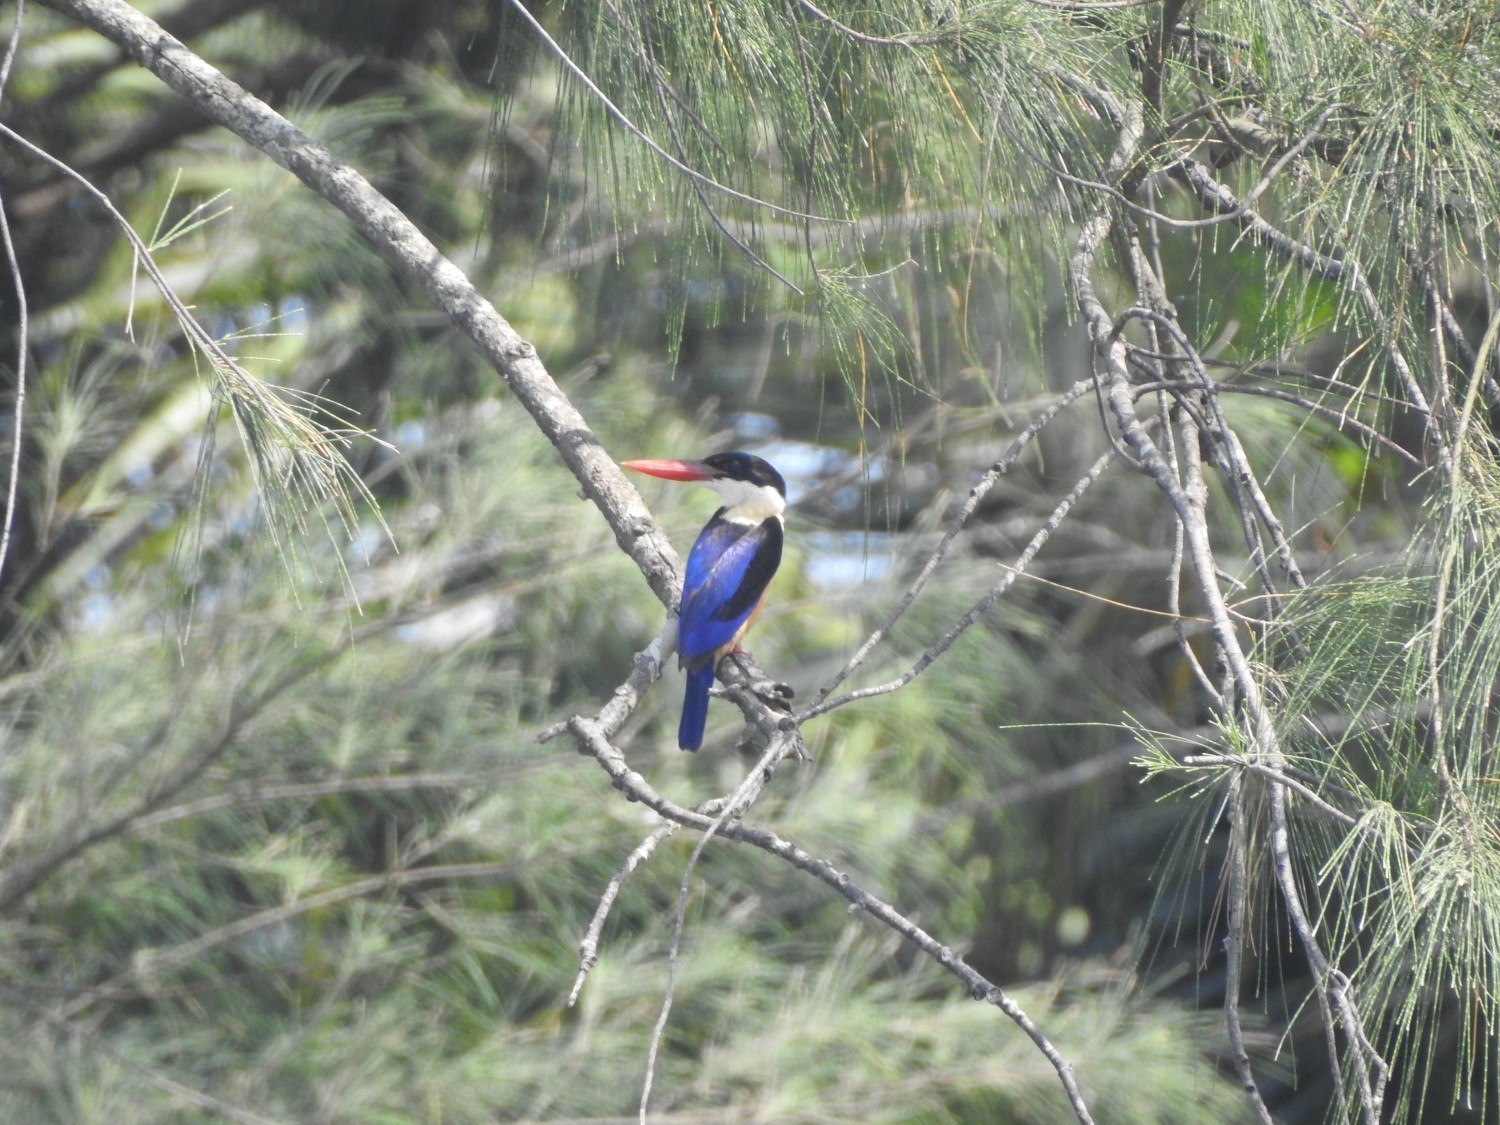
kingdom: Animalia
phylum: Chordata
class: Aves
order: Coraciiformes
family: Alcedinidae
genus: Halcyon
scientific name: Halcyon pileata
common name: Black-capped kingfisher
